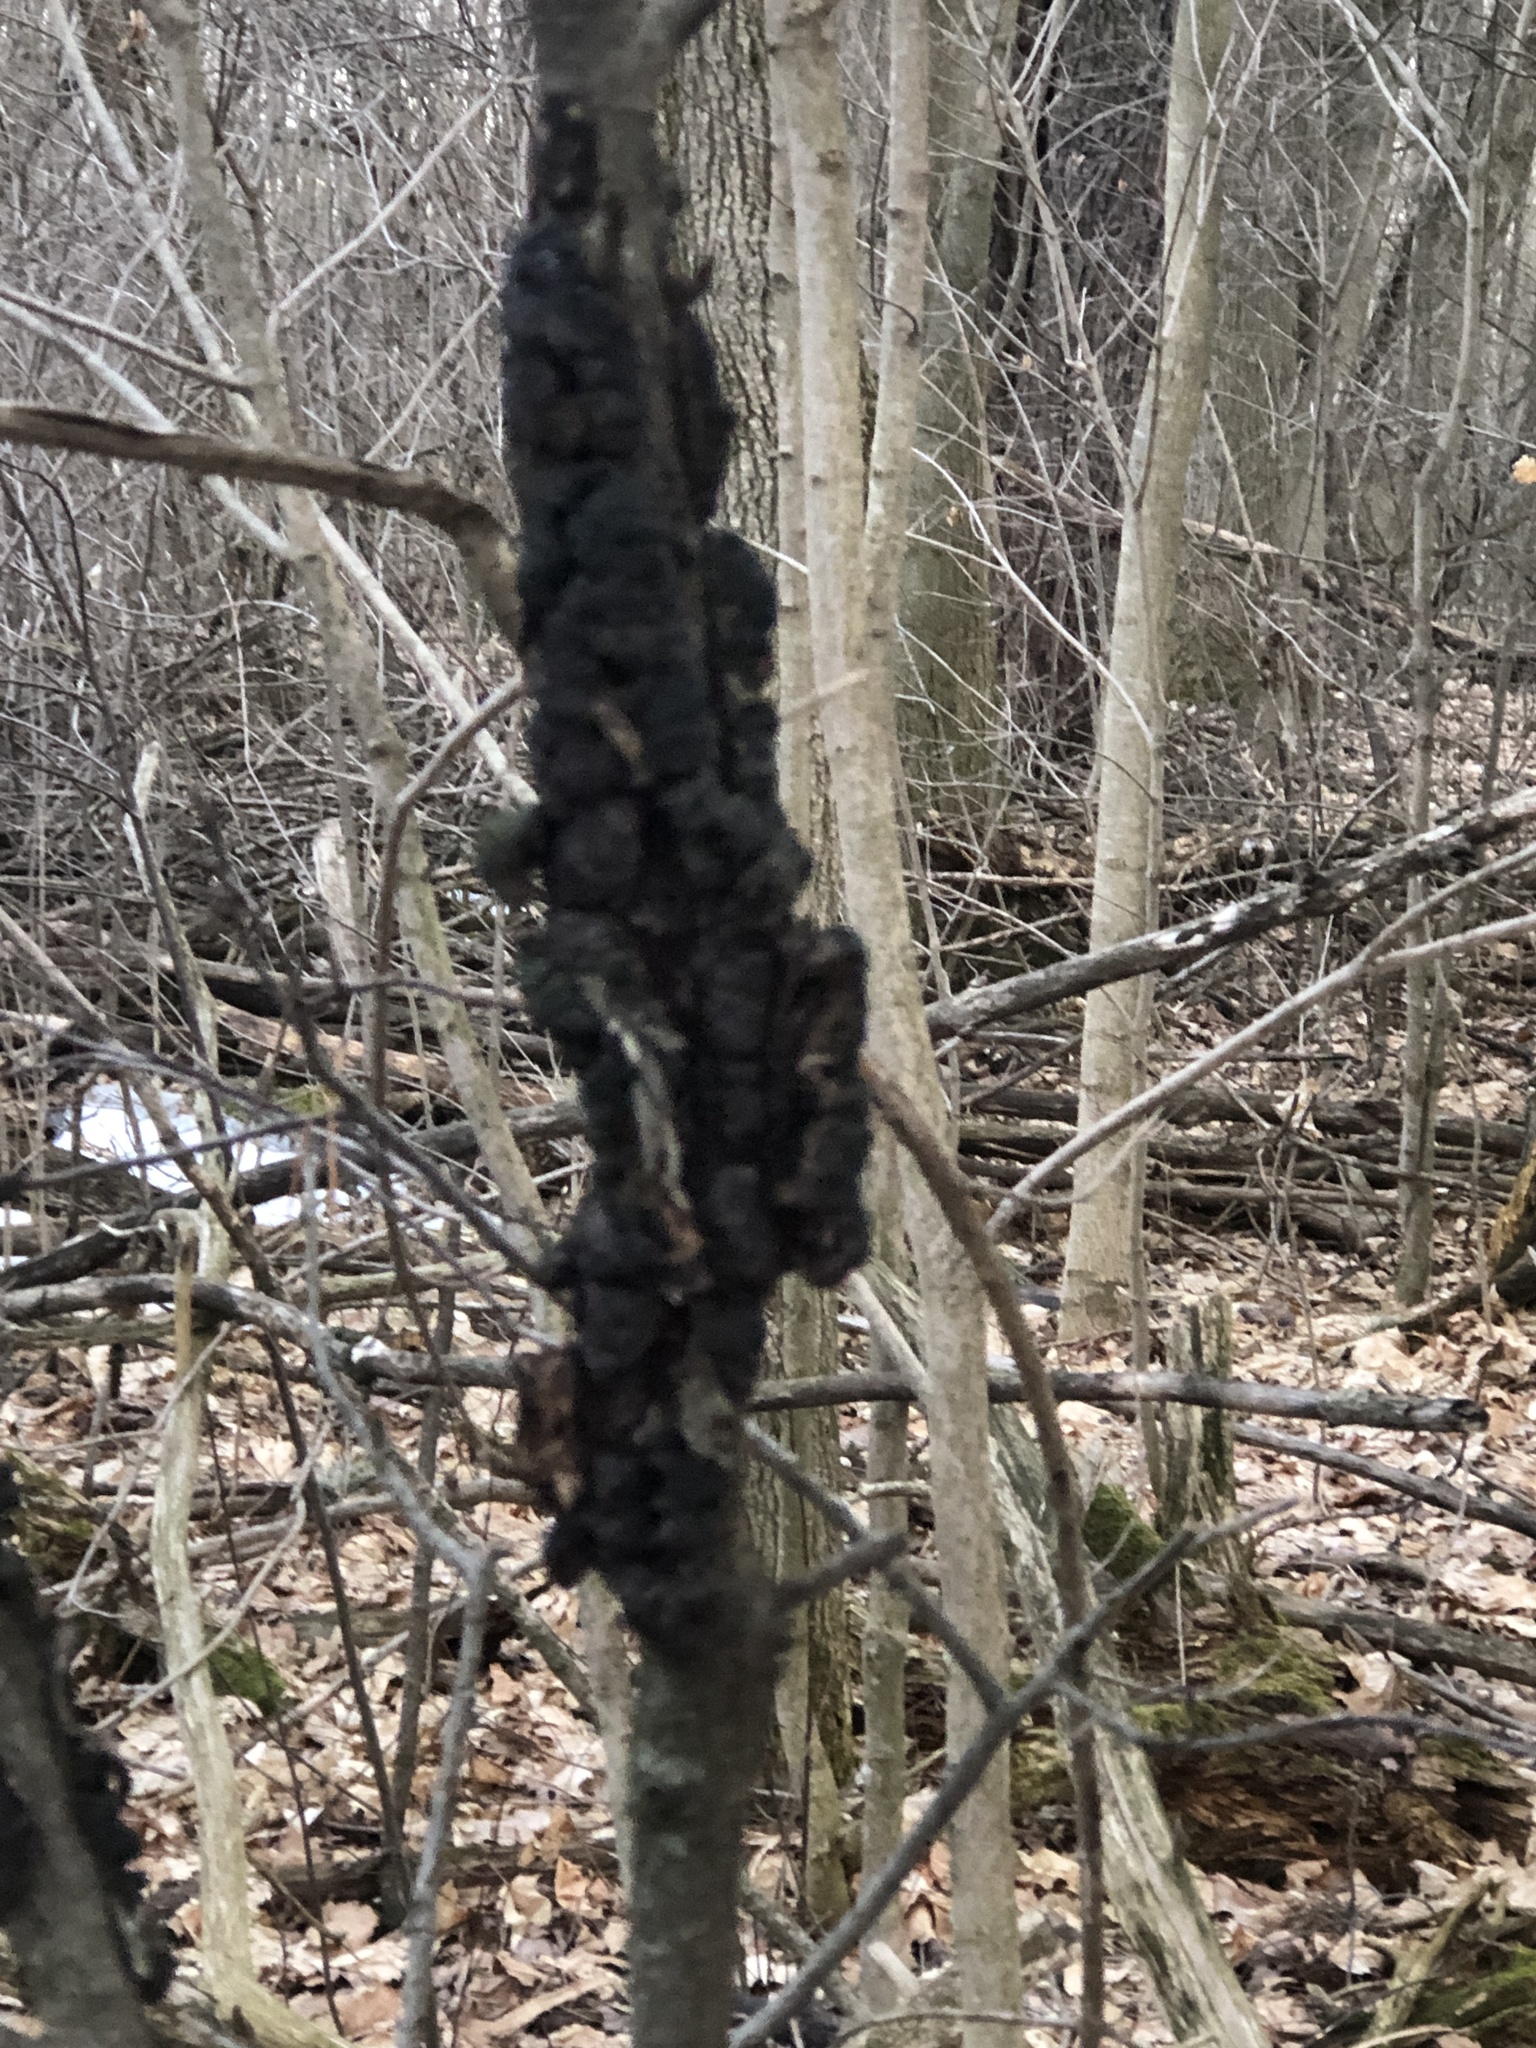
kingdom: Fungi
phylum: Ascomycota
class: Dothideomycetes
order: Venturiales
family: Venturiaceae
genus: Apiosporina
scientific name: Apiosporina morbosa
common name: Black knot
